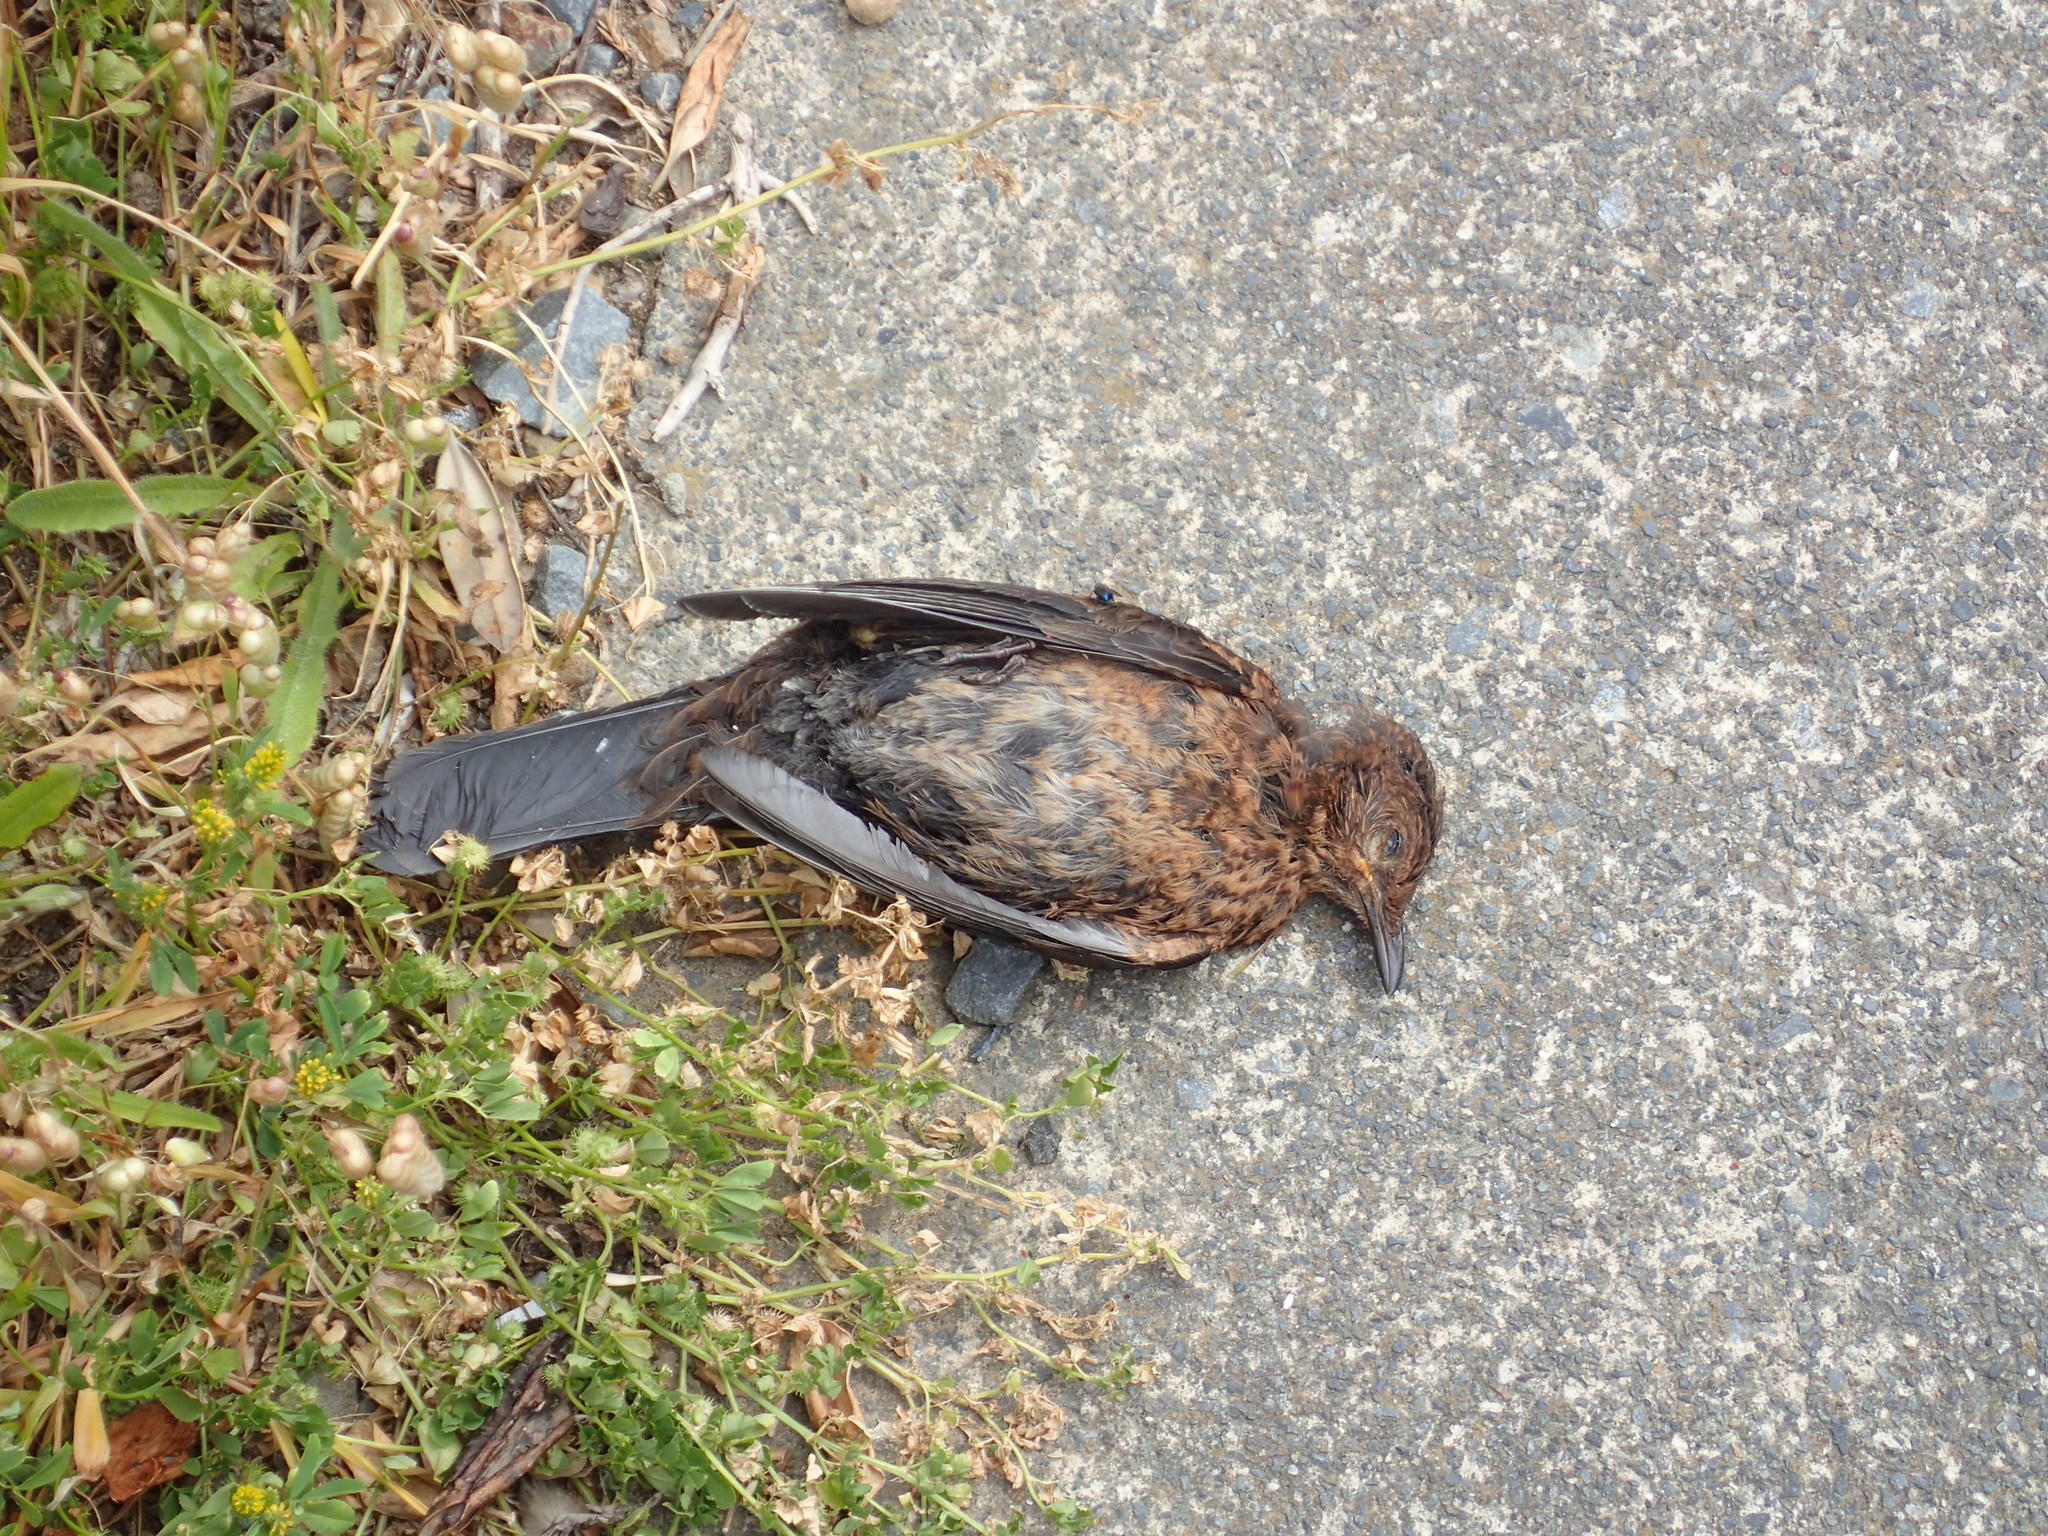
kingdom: Animalia
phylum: Chordata
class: Aves
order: Passeriformes
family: Turdidae
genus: Turdus
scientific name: Turdus merula
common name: Common blackbird
